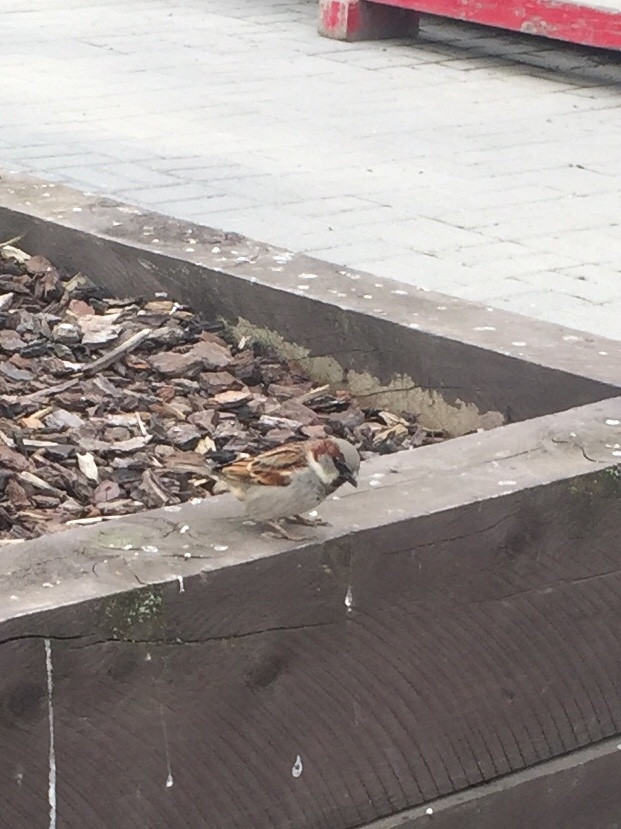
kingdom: Animalia
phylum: Chordata
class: Aves
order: Passeriformes
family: Passeridae
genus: Passer
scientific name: Passer domesticus
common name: House sparrow
